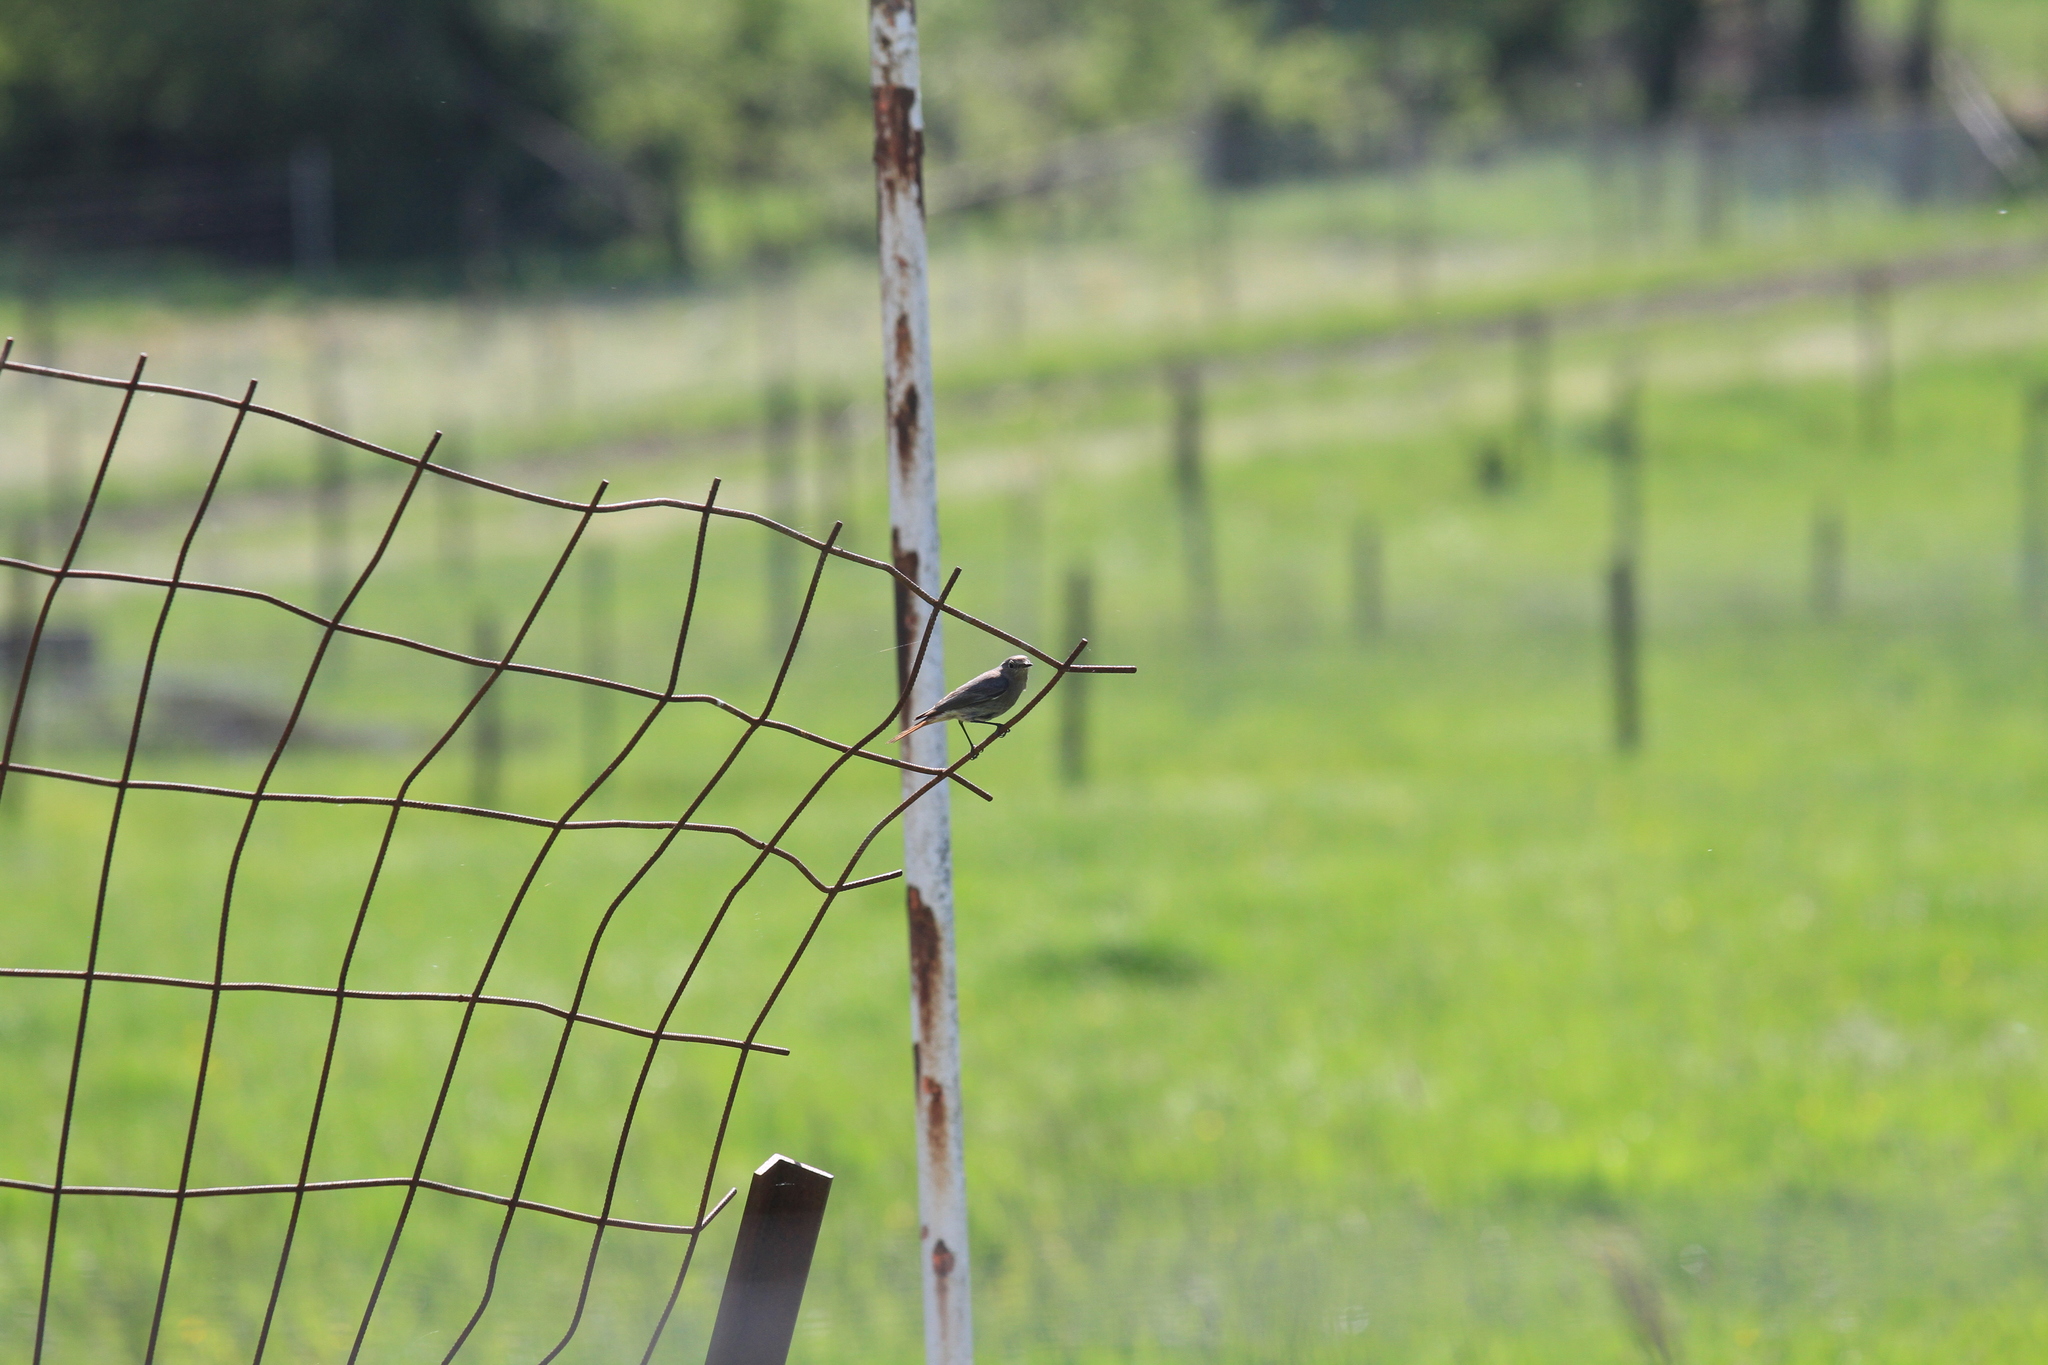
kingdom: Animalia
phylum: Chordata
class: Aves
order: Passeriformes
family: Muscicapidae
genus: Phoenicurus
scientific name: Phoenicurus ochruros
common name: Black redstart
